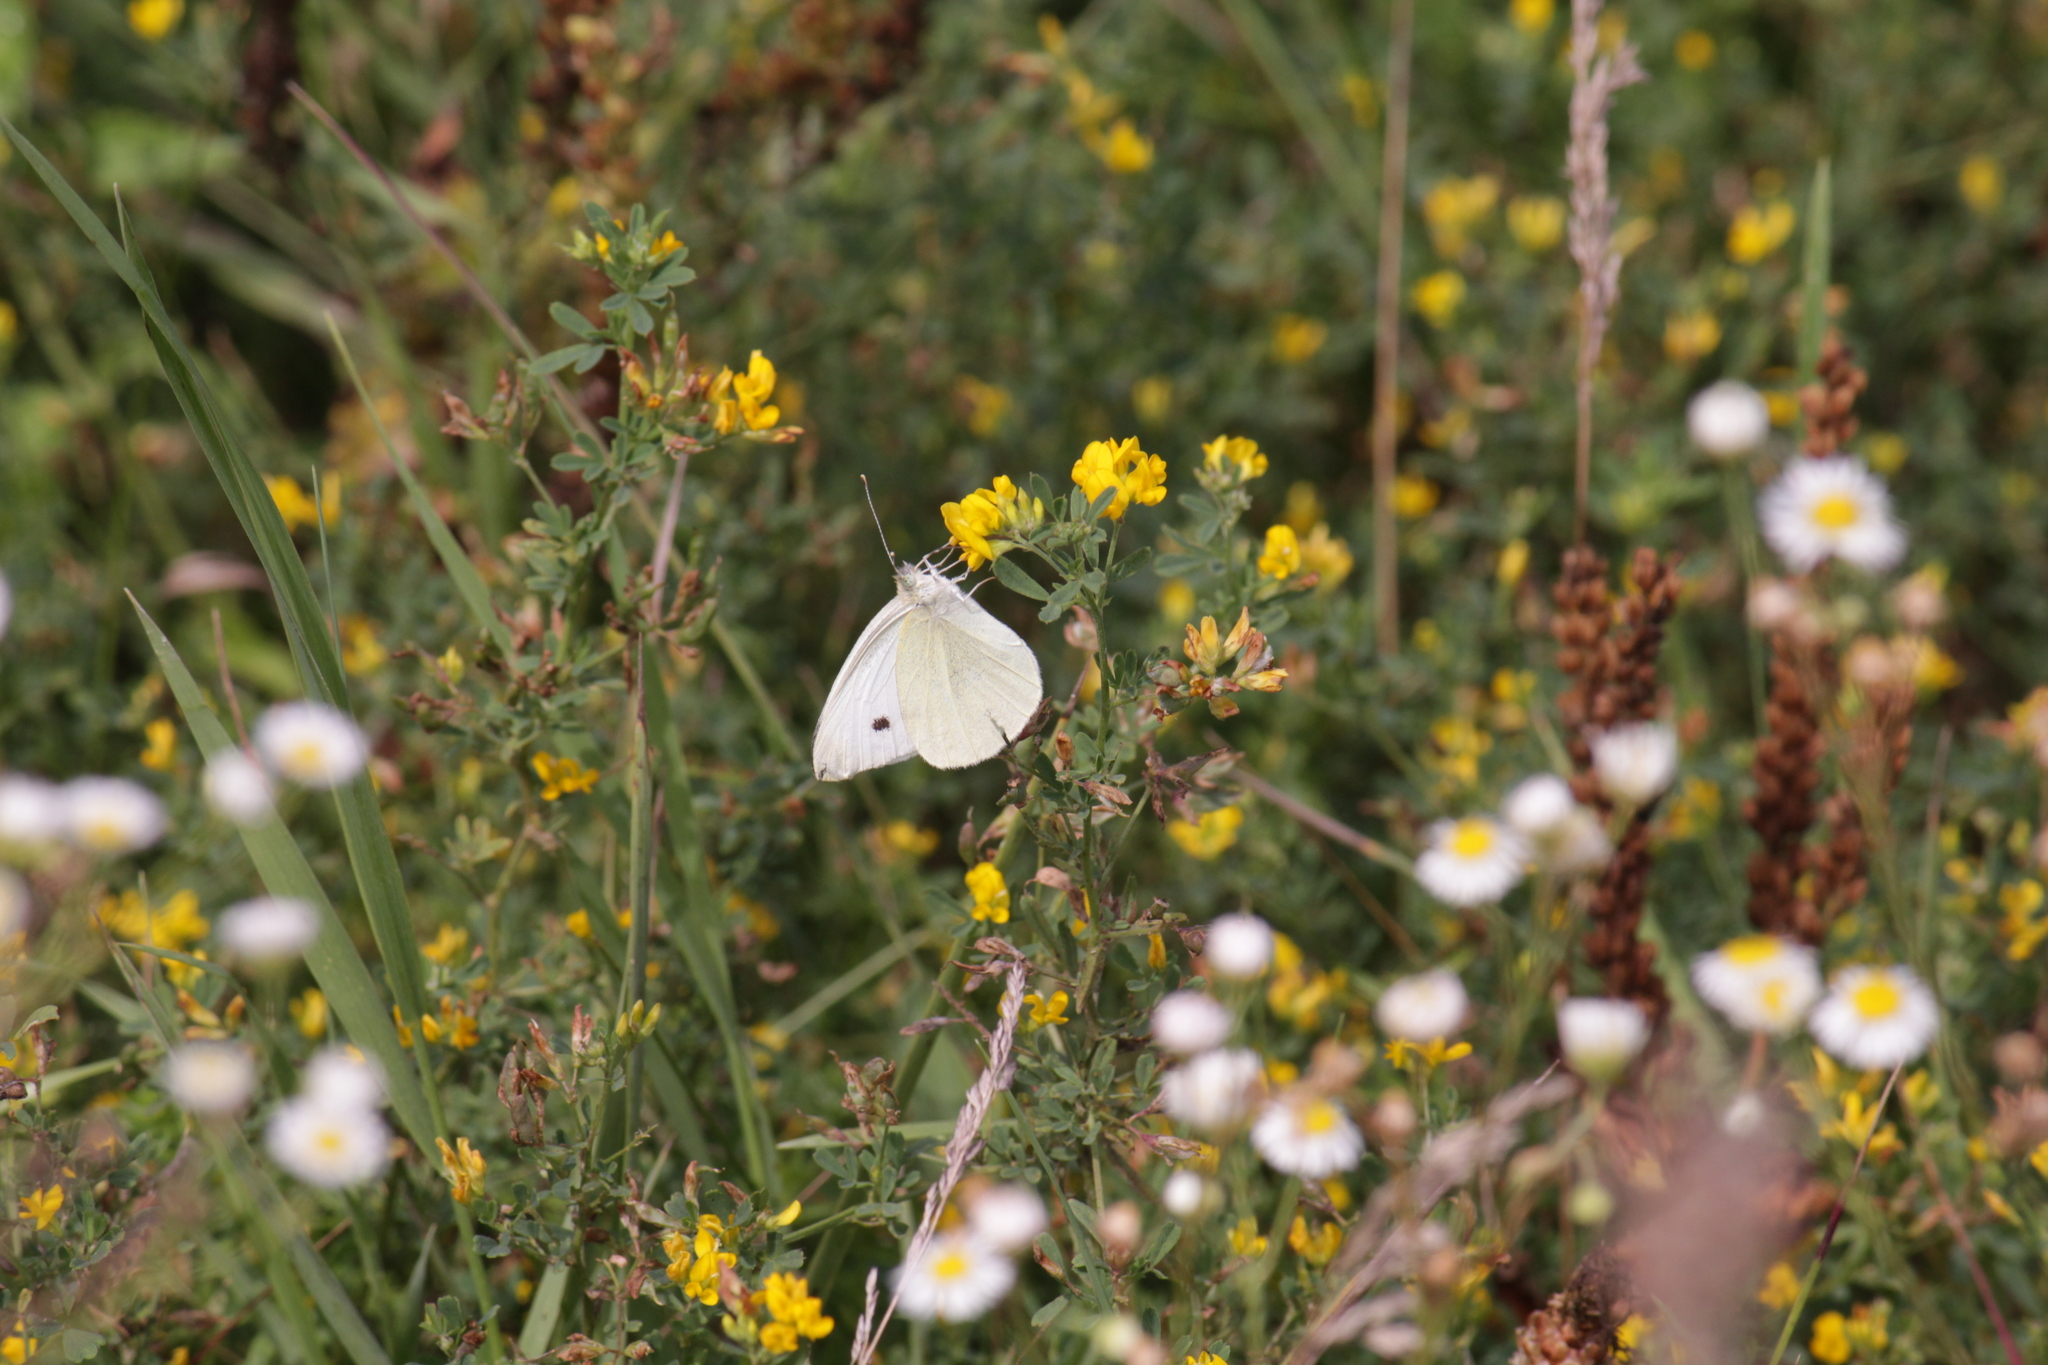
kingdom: Animalia
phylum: Arthropoda
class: Insecta
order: Lepidoptera
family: Pieridae
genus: Pieris
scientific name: Pieris rapae
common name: Small white
